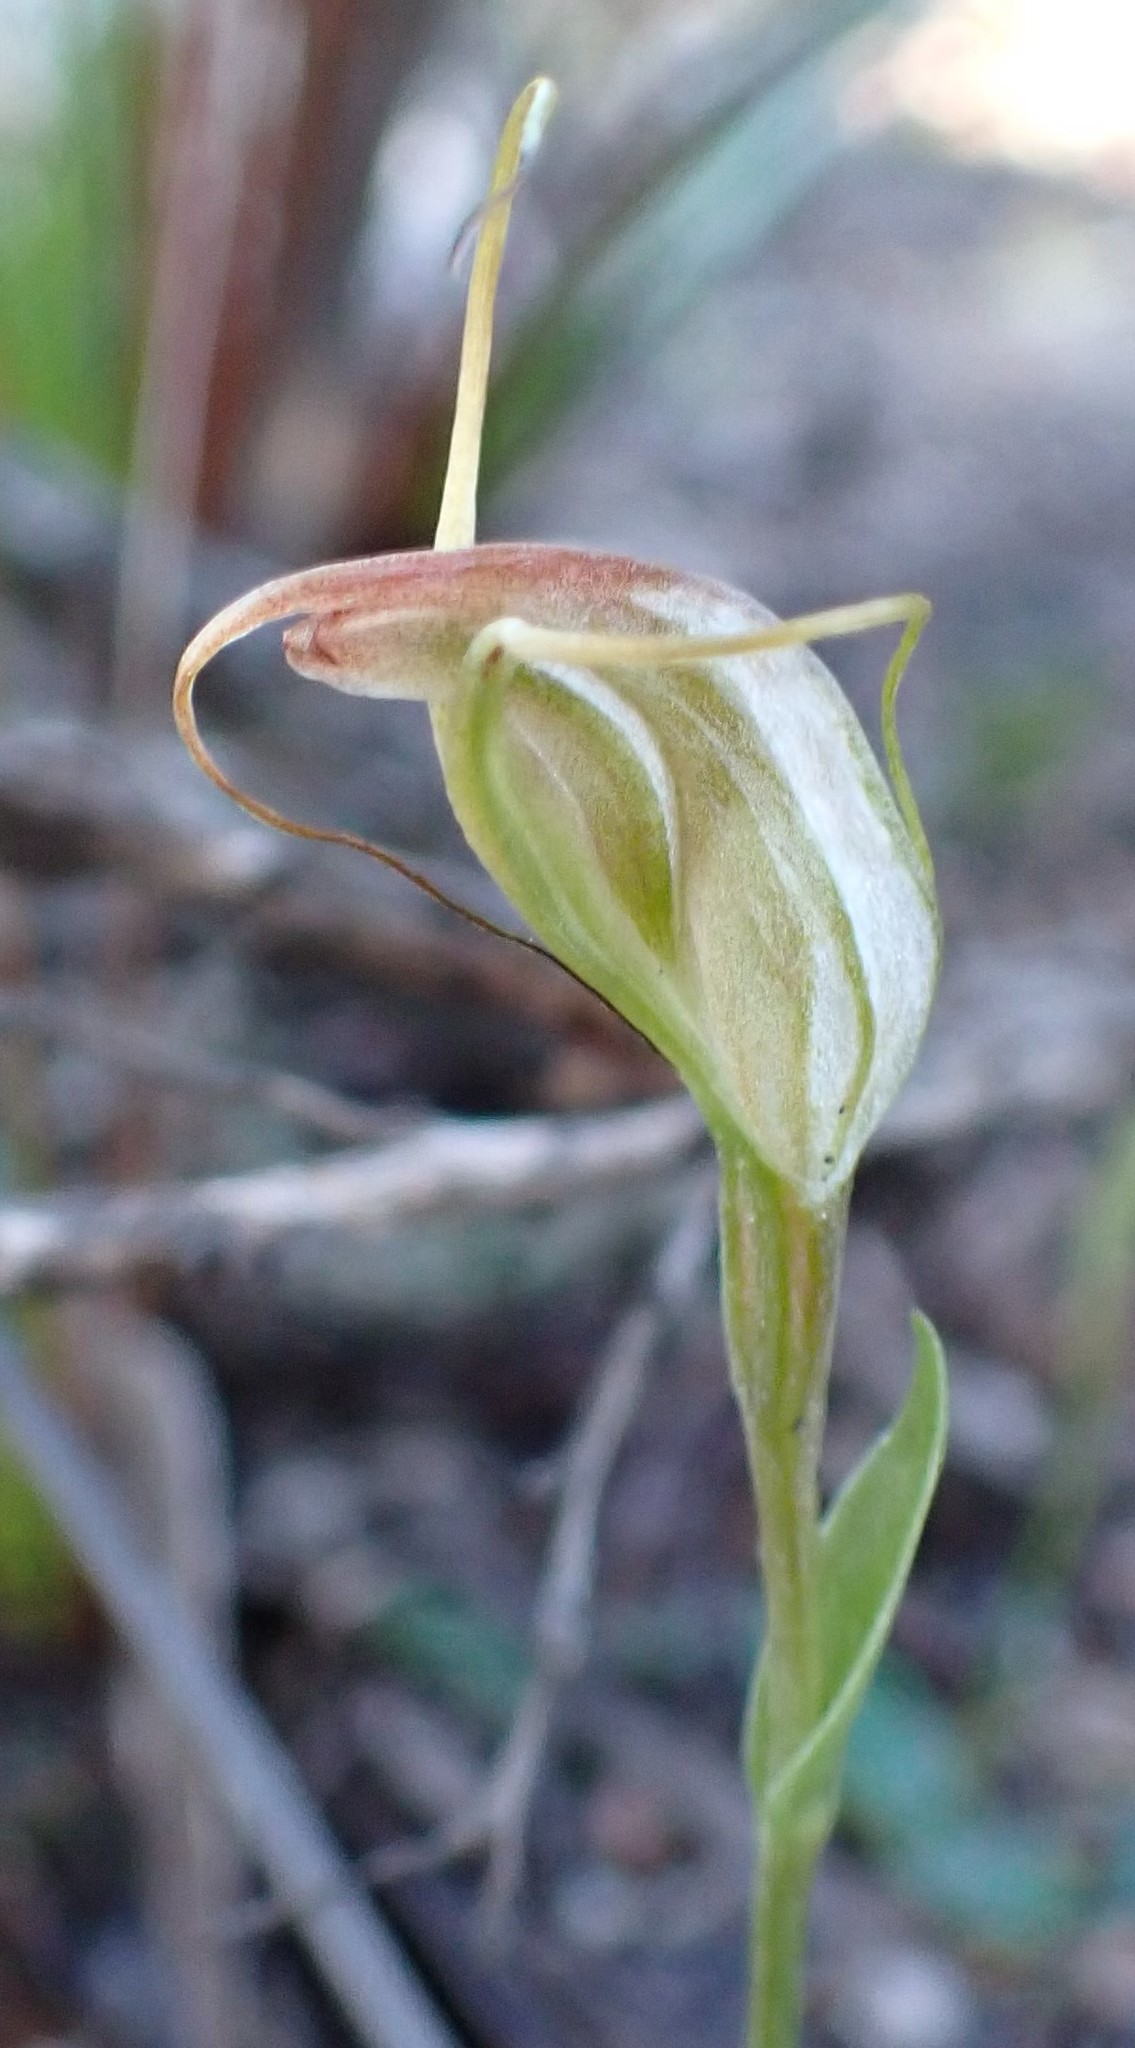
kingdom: Plantae
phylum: Tracheophyta
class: Liliopsida
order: Asparagales
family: Orchidaceae
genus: Pterostylis
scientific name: Pterostylis pedoglossa
